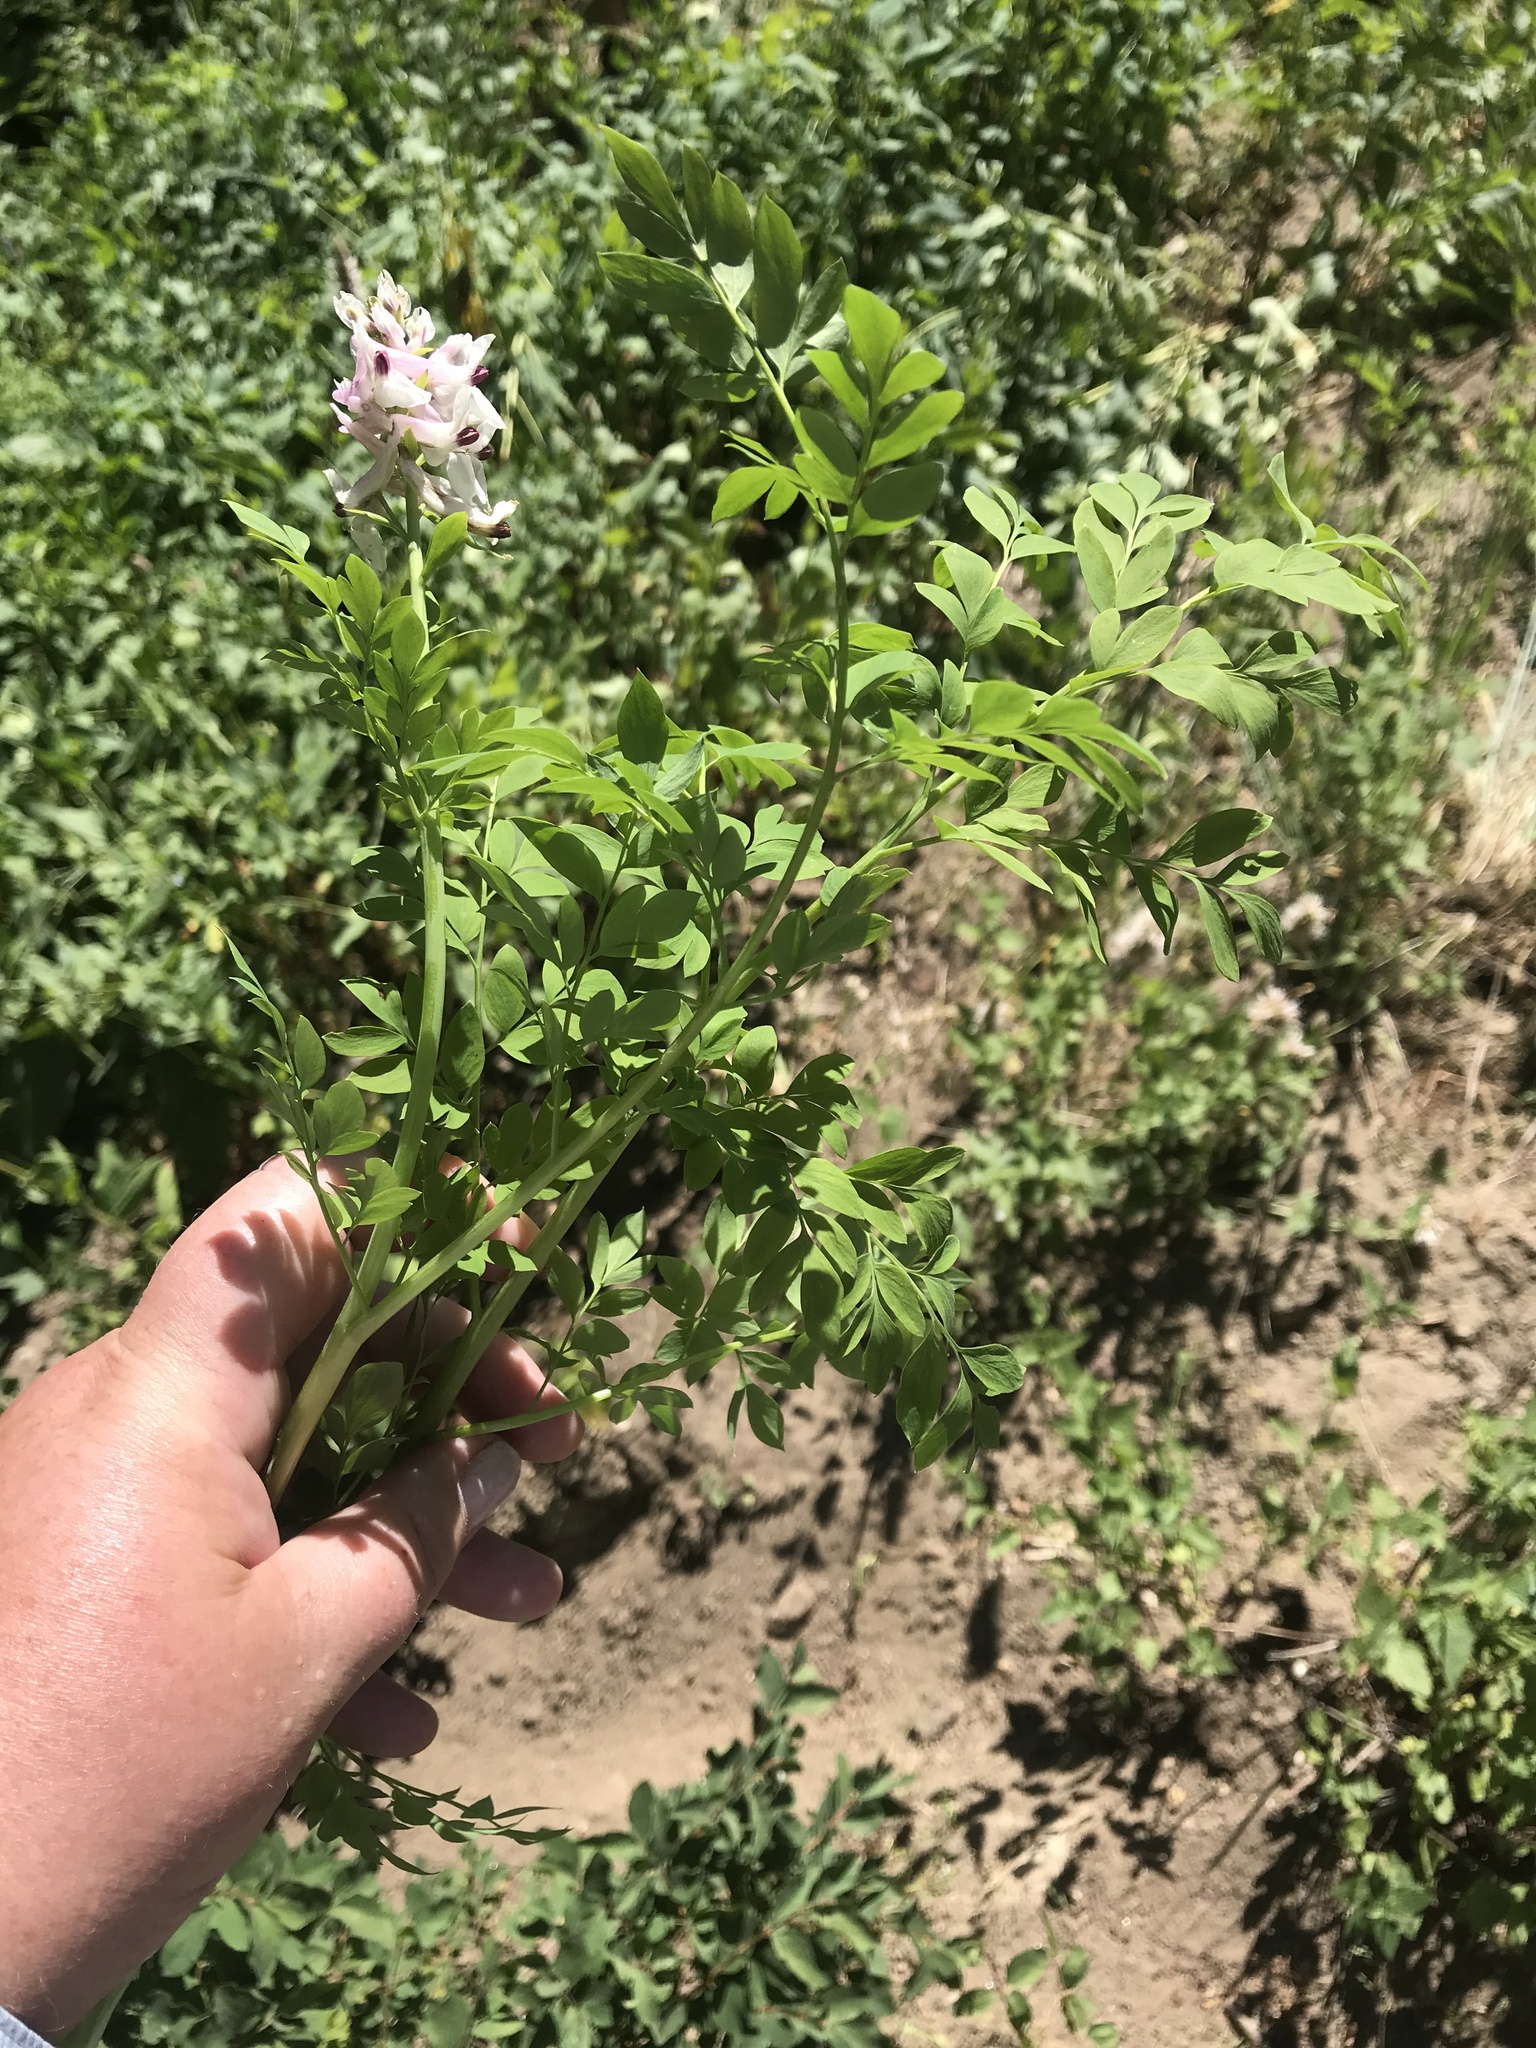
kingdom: Plantae
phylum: Tracheophyta
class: Magnoliopsida
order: Ranunculales
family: Papaveraceae
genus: Corydalis
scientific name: Corydalis caseana
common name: Fitweed
